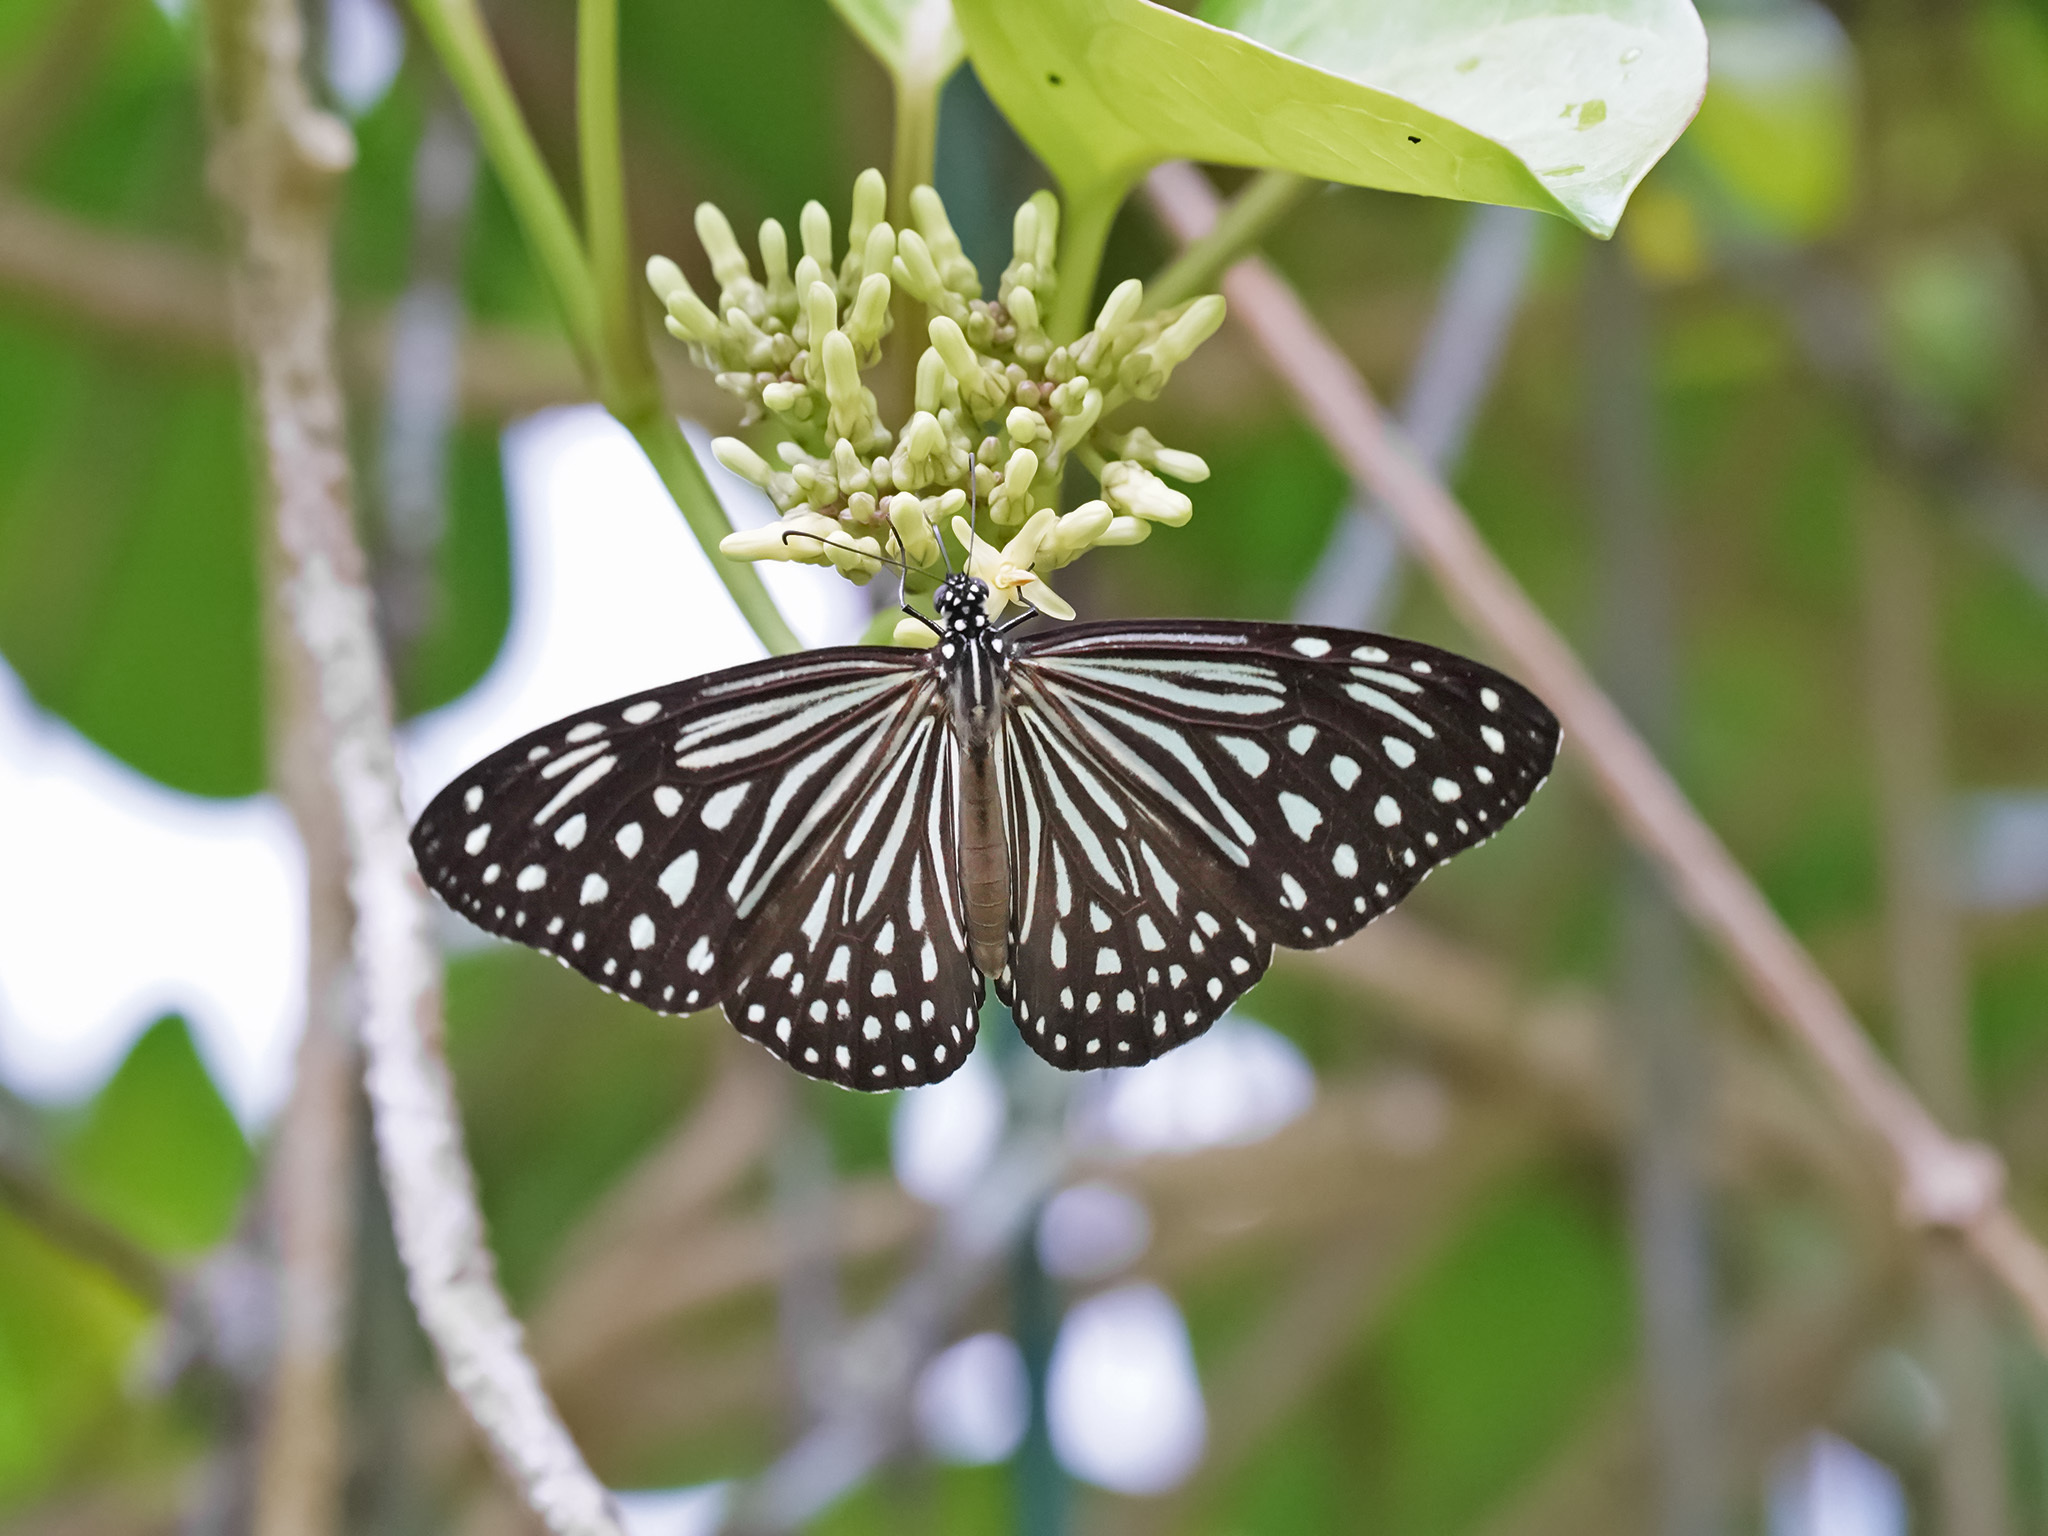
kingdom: Animalia
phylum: Arthropoda
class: Insecta
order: Lepidoptera
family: Nymphalidae
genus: Parantica
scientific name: Parantica agleoides
